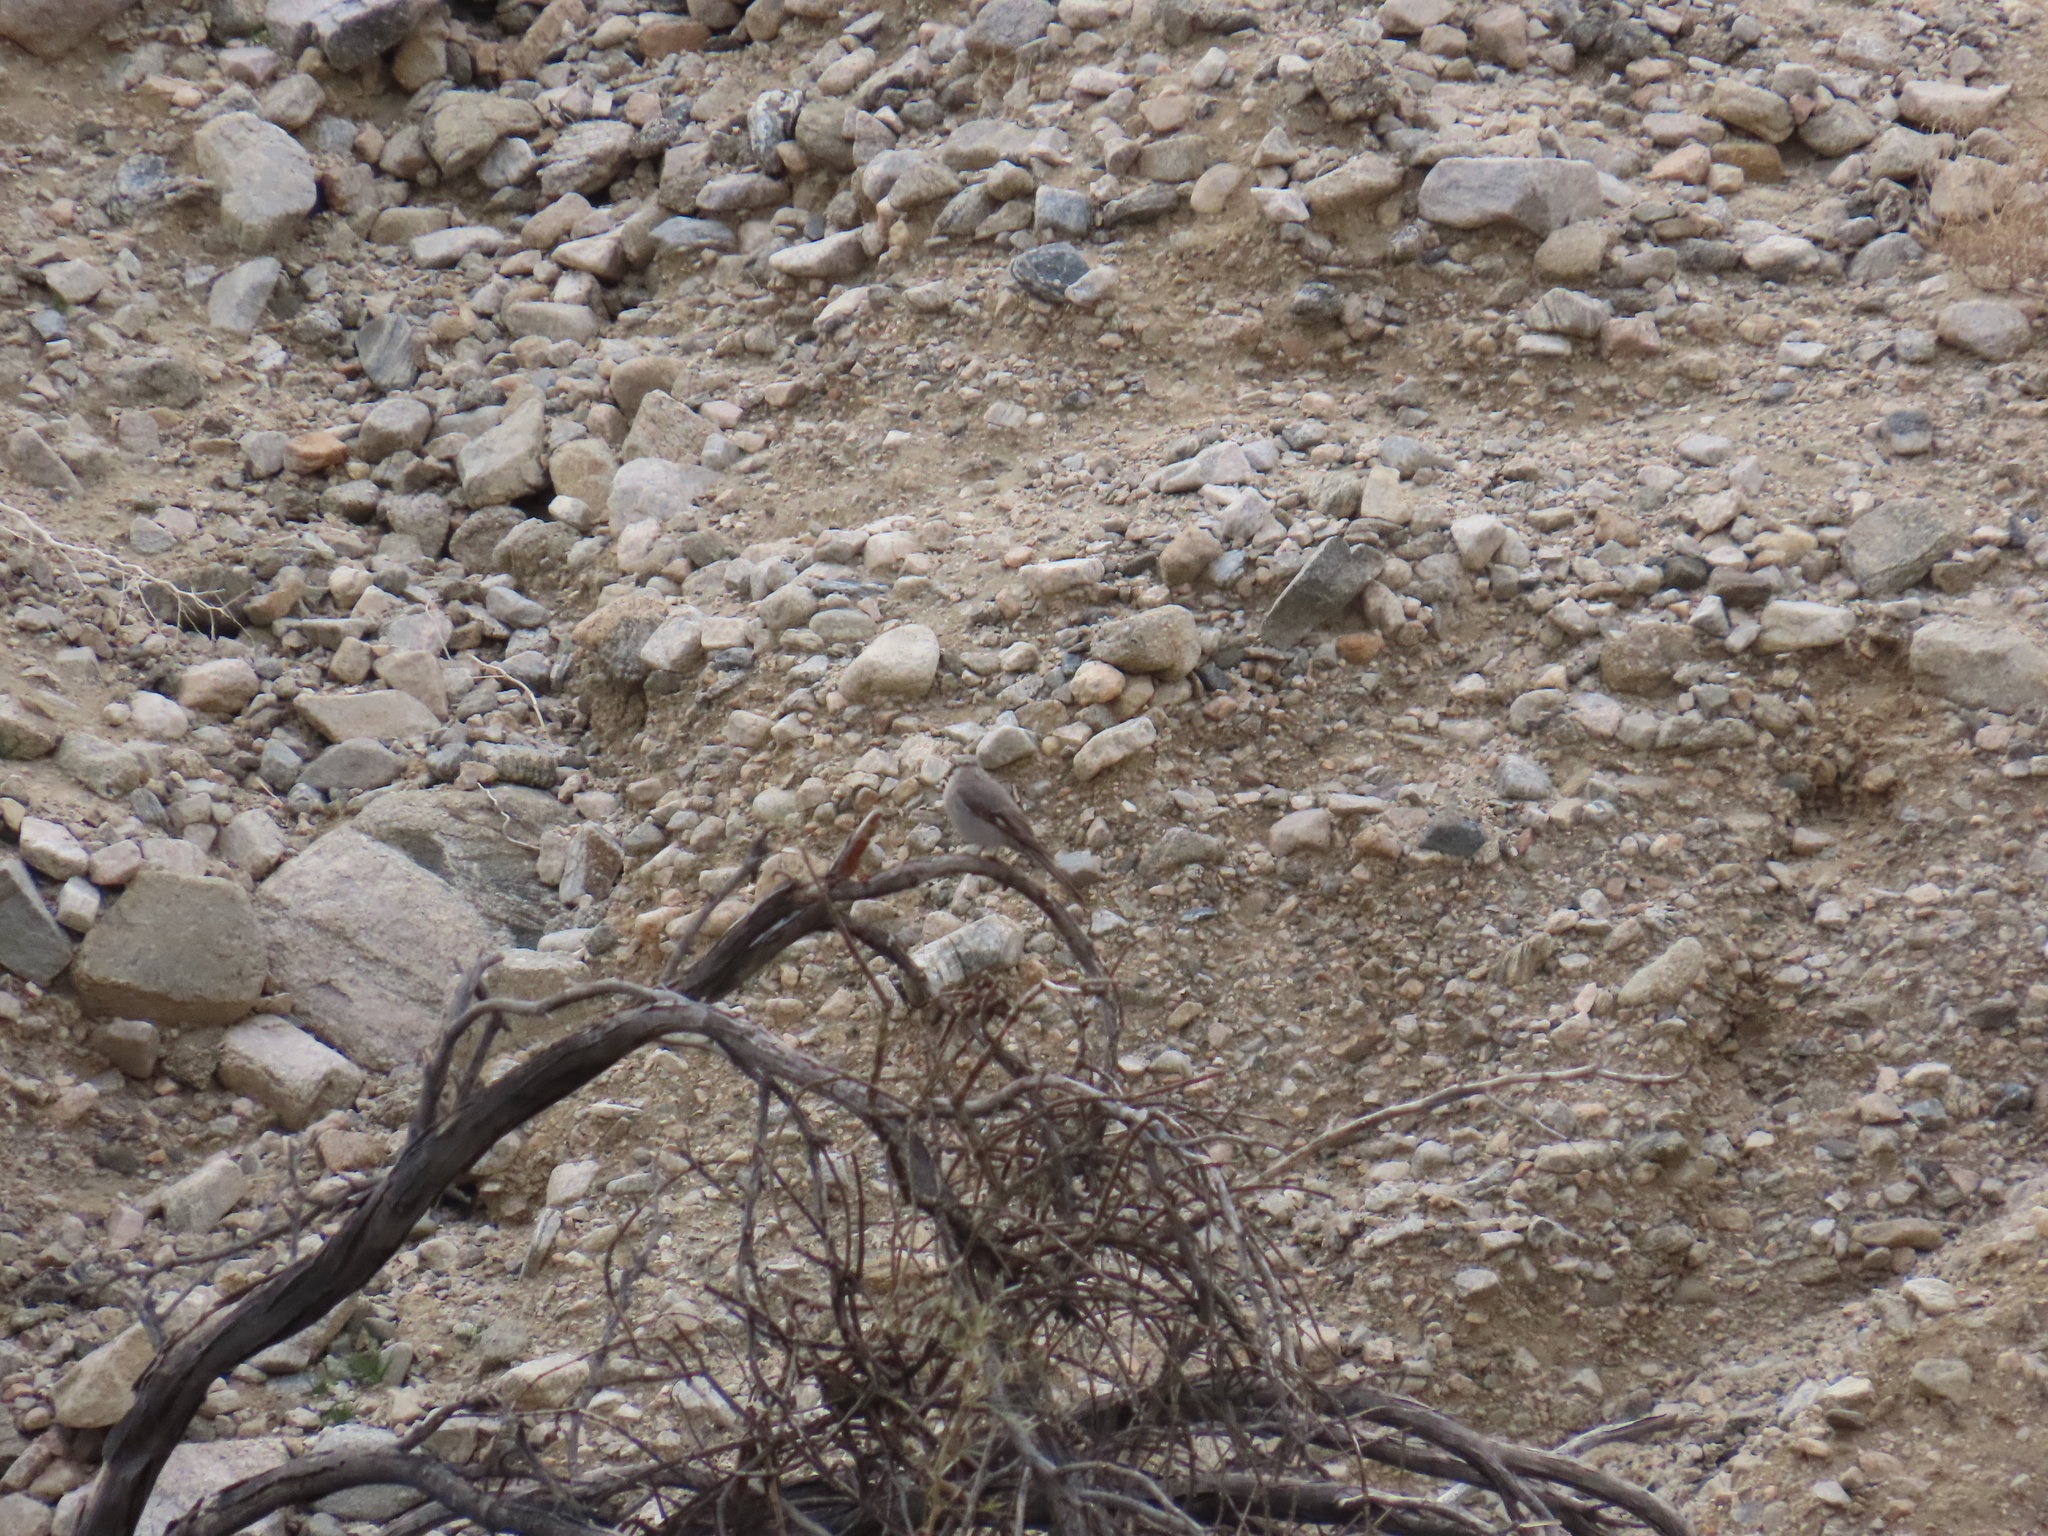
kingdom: Animalia
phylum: Chordata
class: Aves
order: Passeriformes
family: Turdidae
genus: Myadestes
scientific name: Myadestes townsendi
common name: Townsend's solitaire
